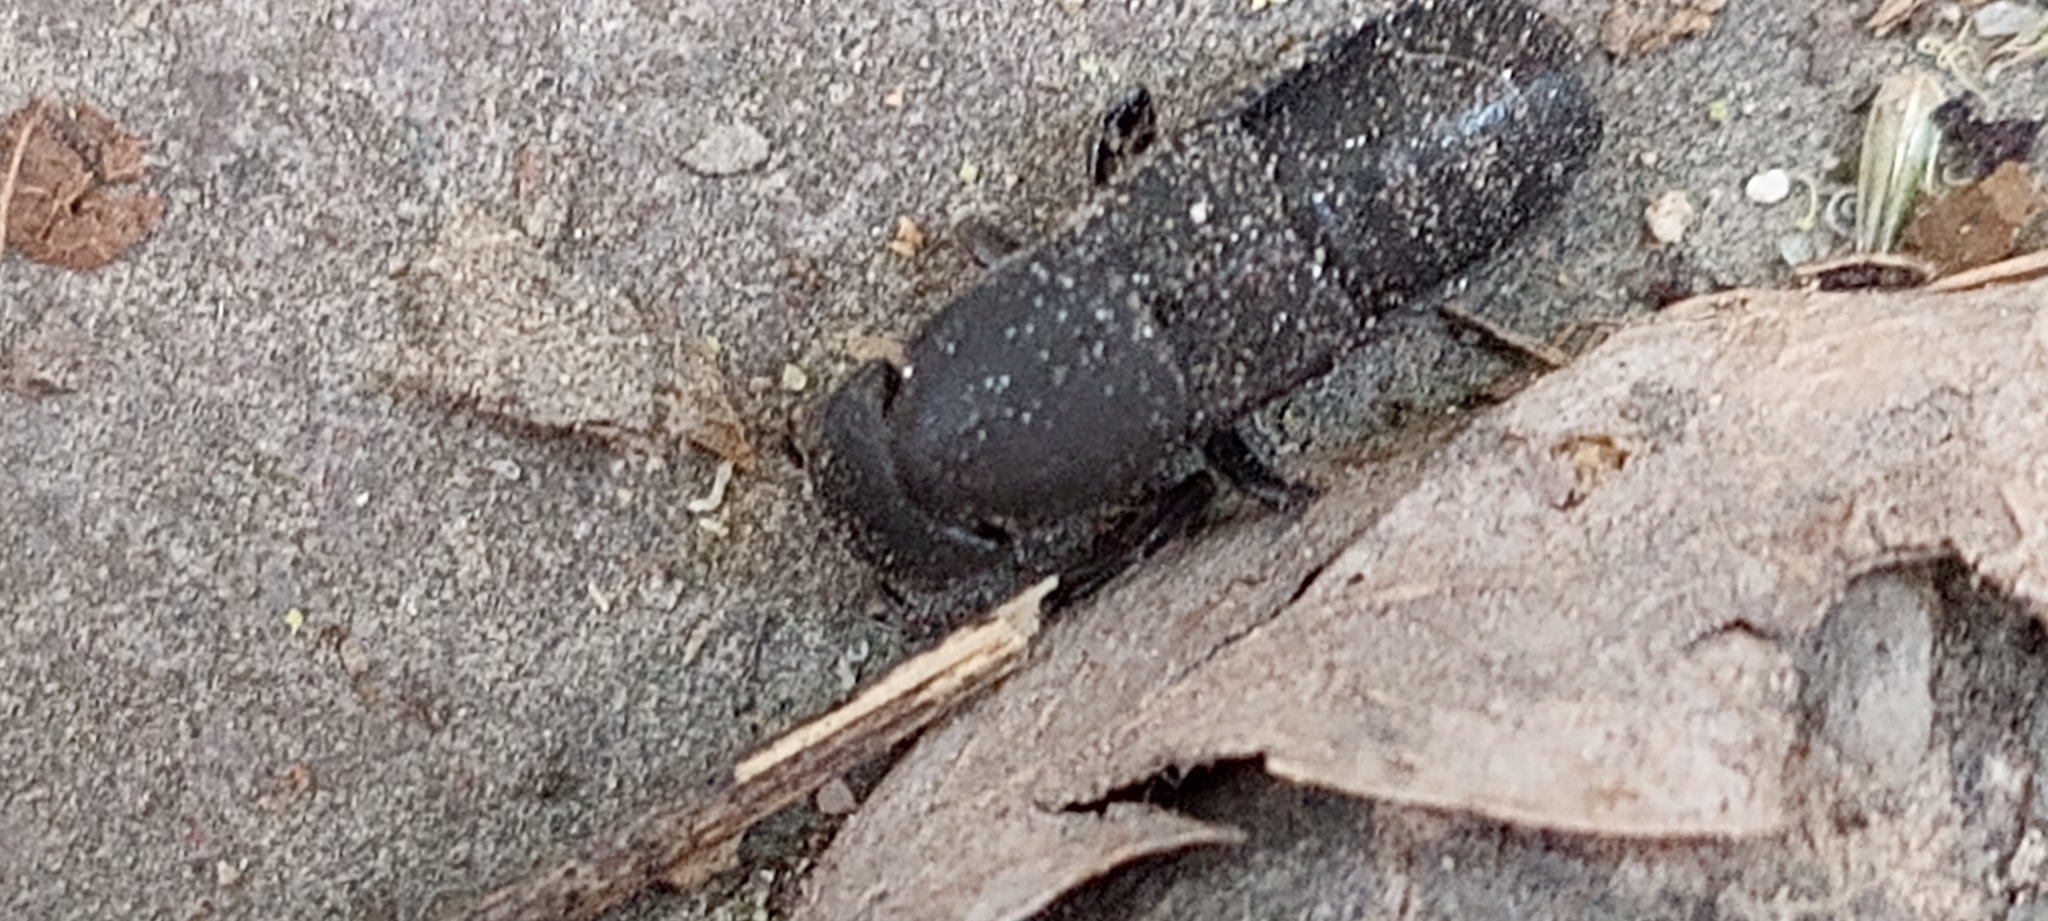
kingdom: Animalia
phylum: Arthropoda
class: Insecta
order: Coleoptera
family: Staphylinidae
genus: Platydracus
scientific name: Platydracus
